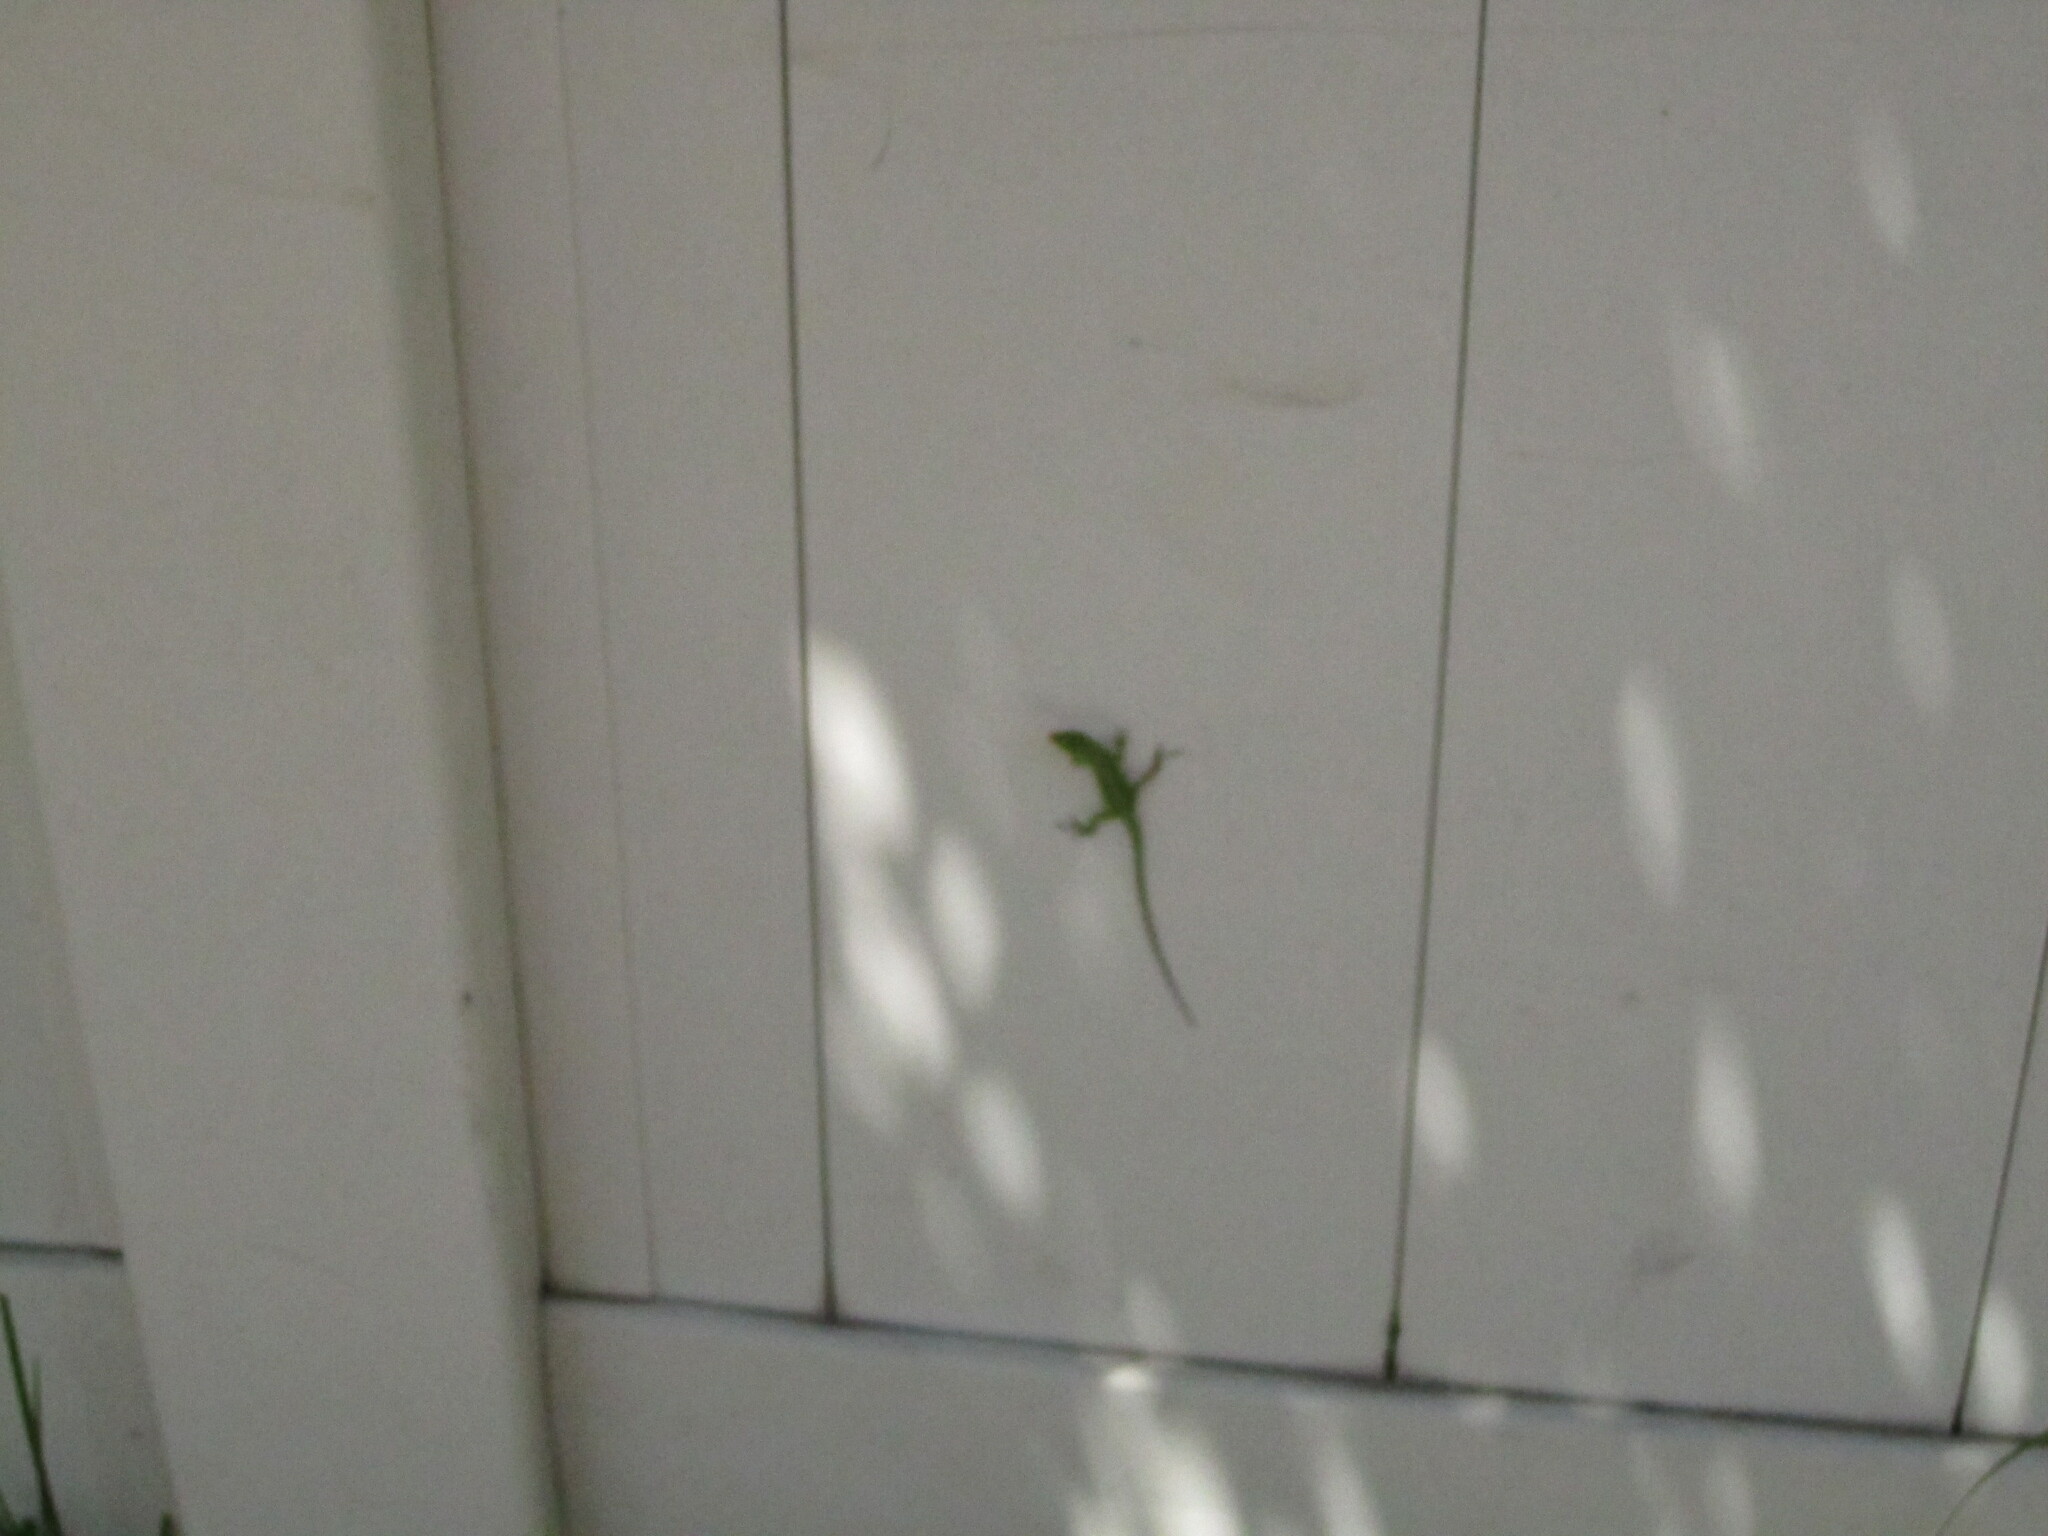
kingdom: Animalia
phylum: Chordata
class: Squamata
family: Dactyloidae
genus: Anolis
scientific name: Anolis carolinensis
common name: Green anole
